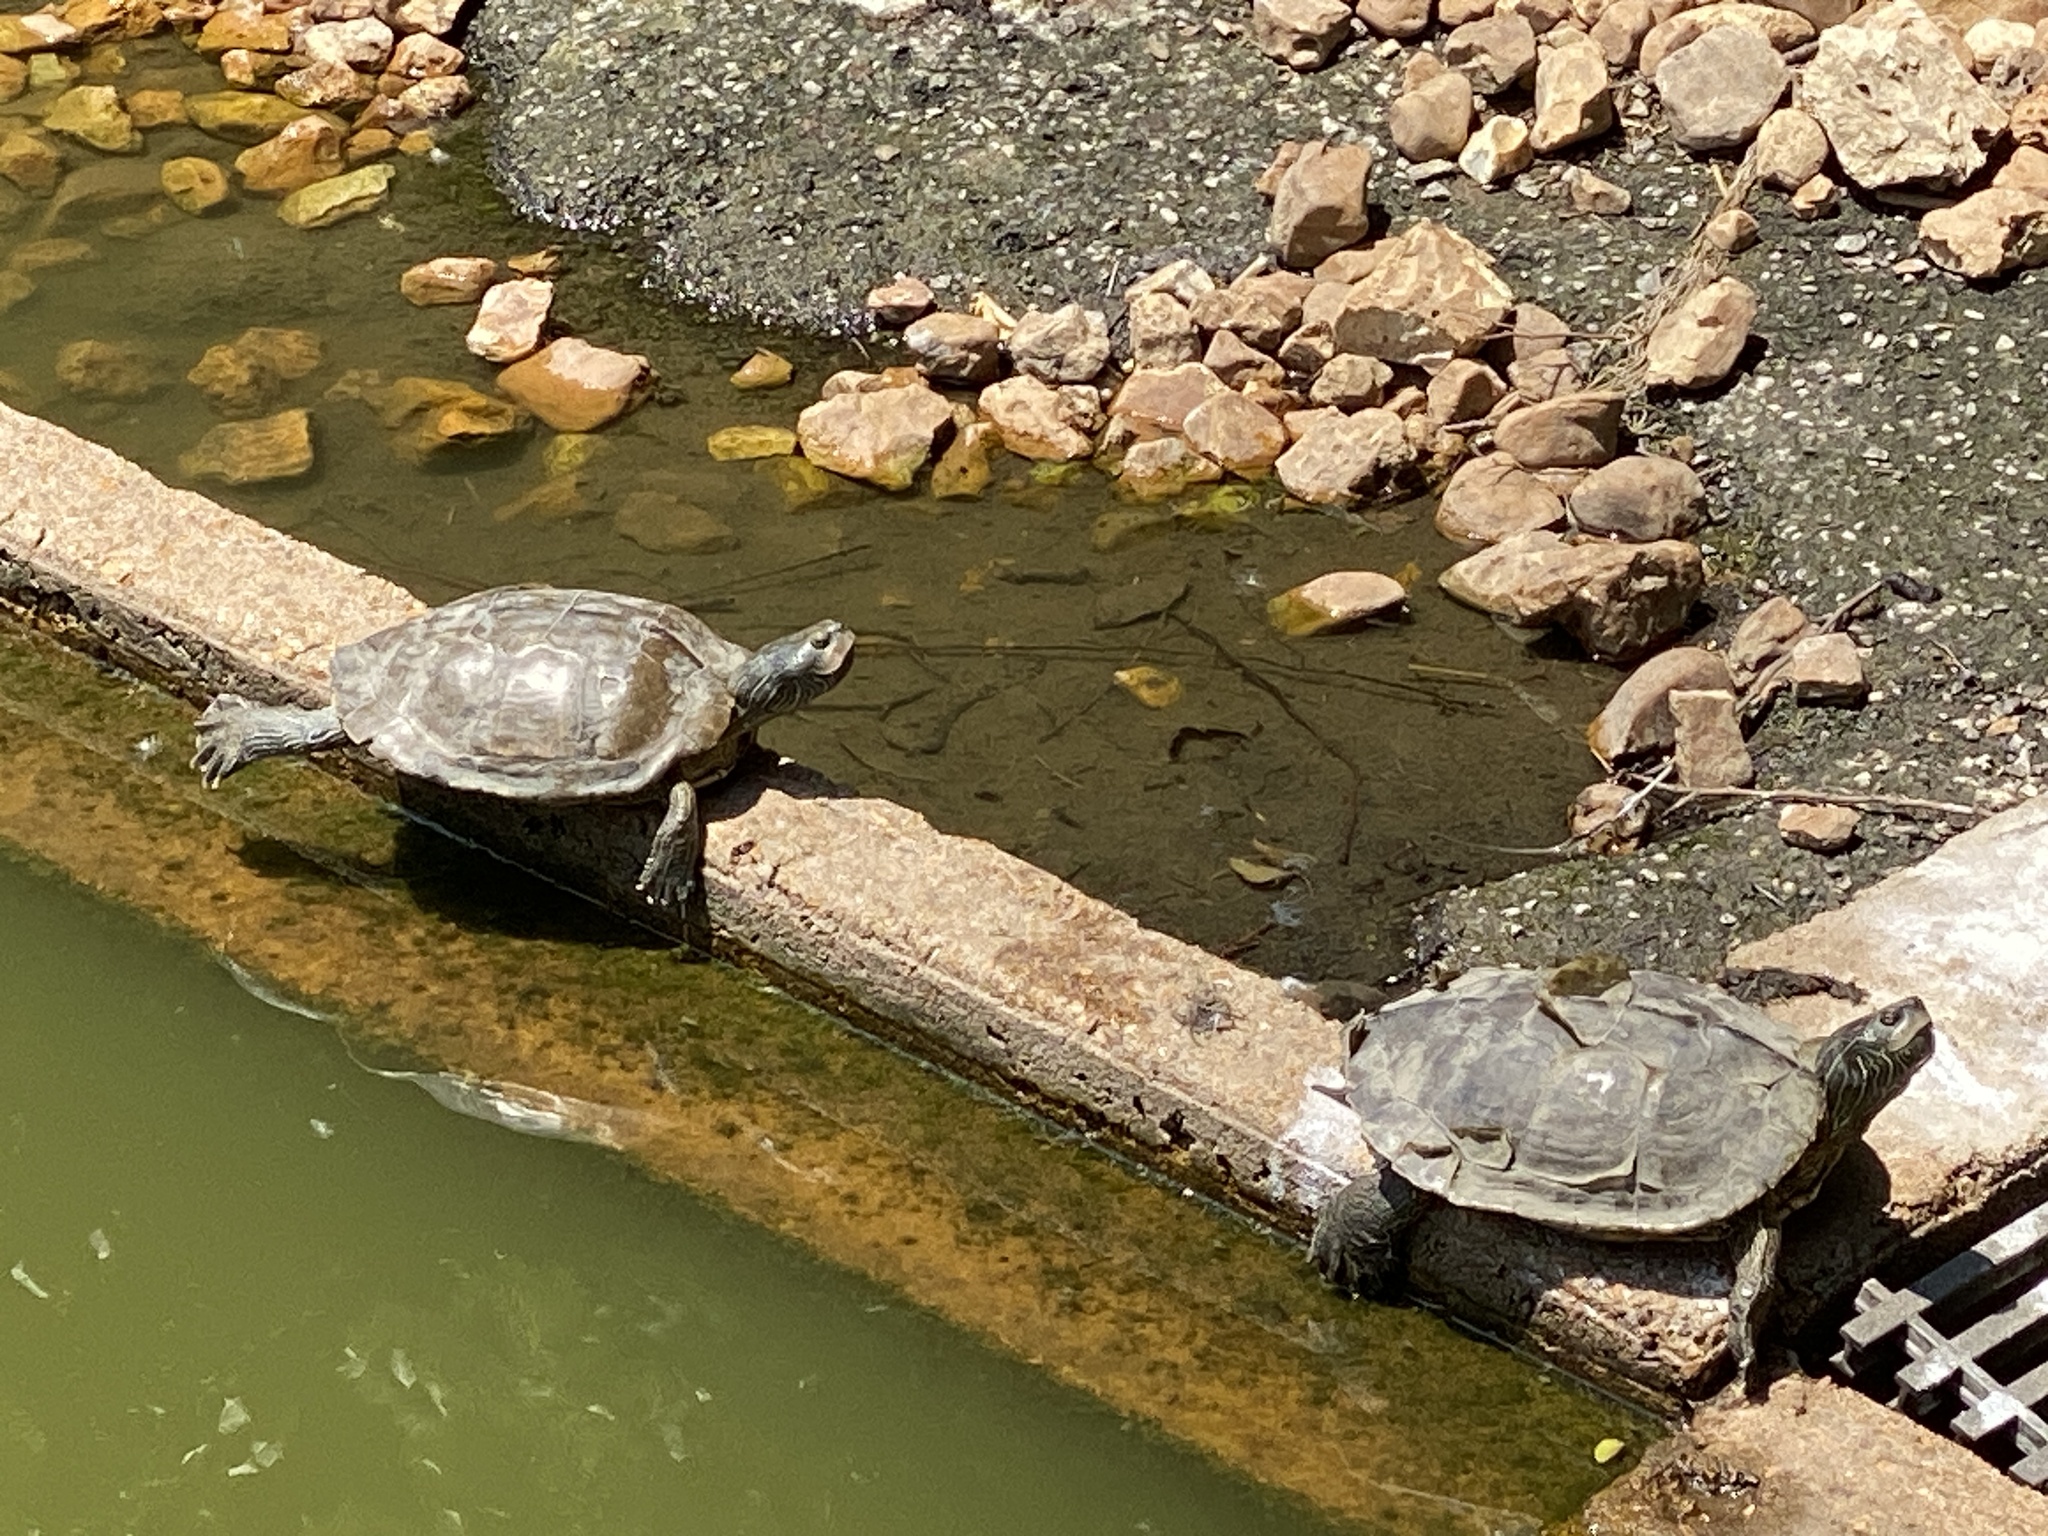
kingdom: Animalia
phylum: Chordata
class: Testudines
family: Emydidae
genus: Graptemys
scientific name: Graptemys geographica
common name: Common map turtle
